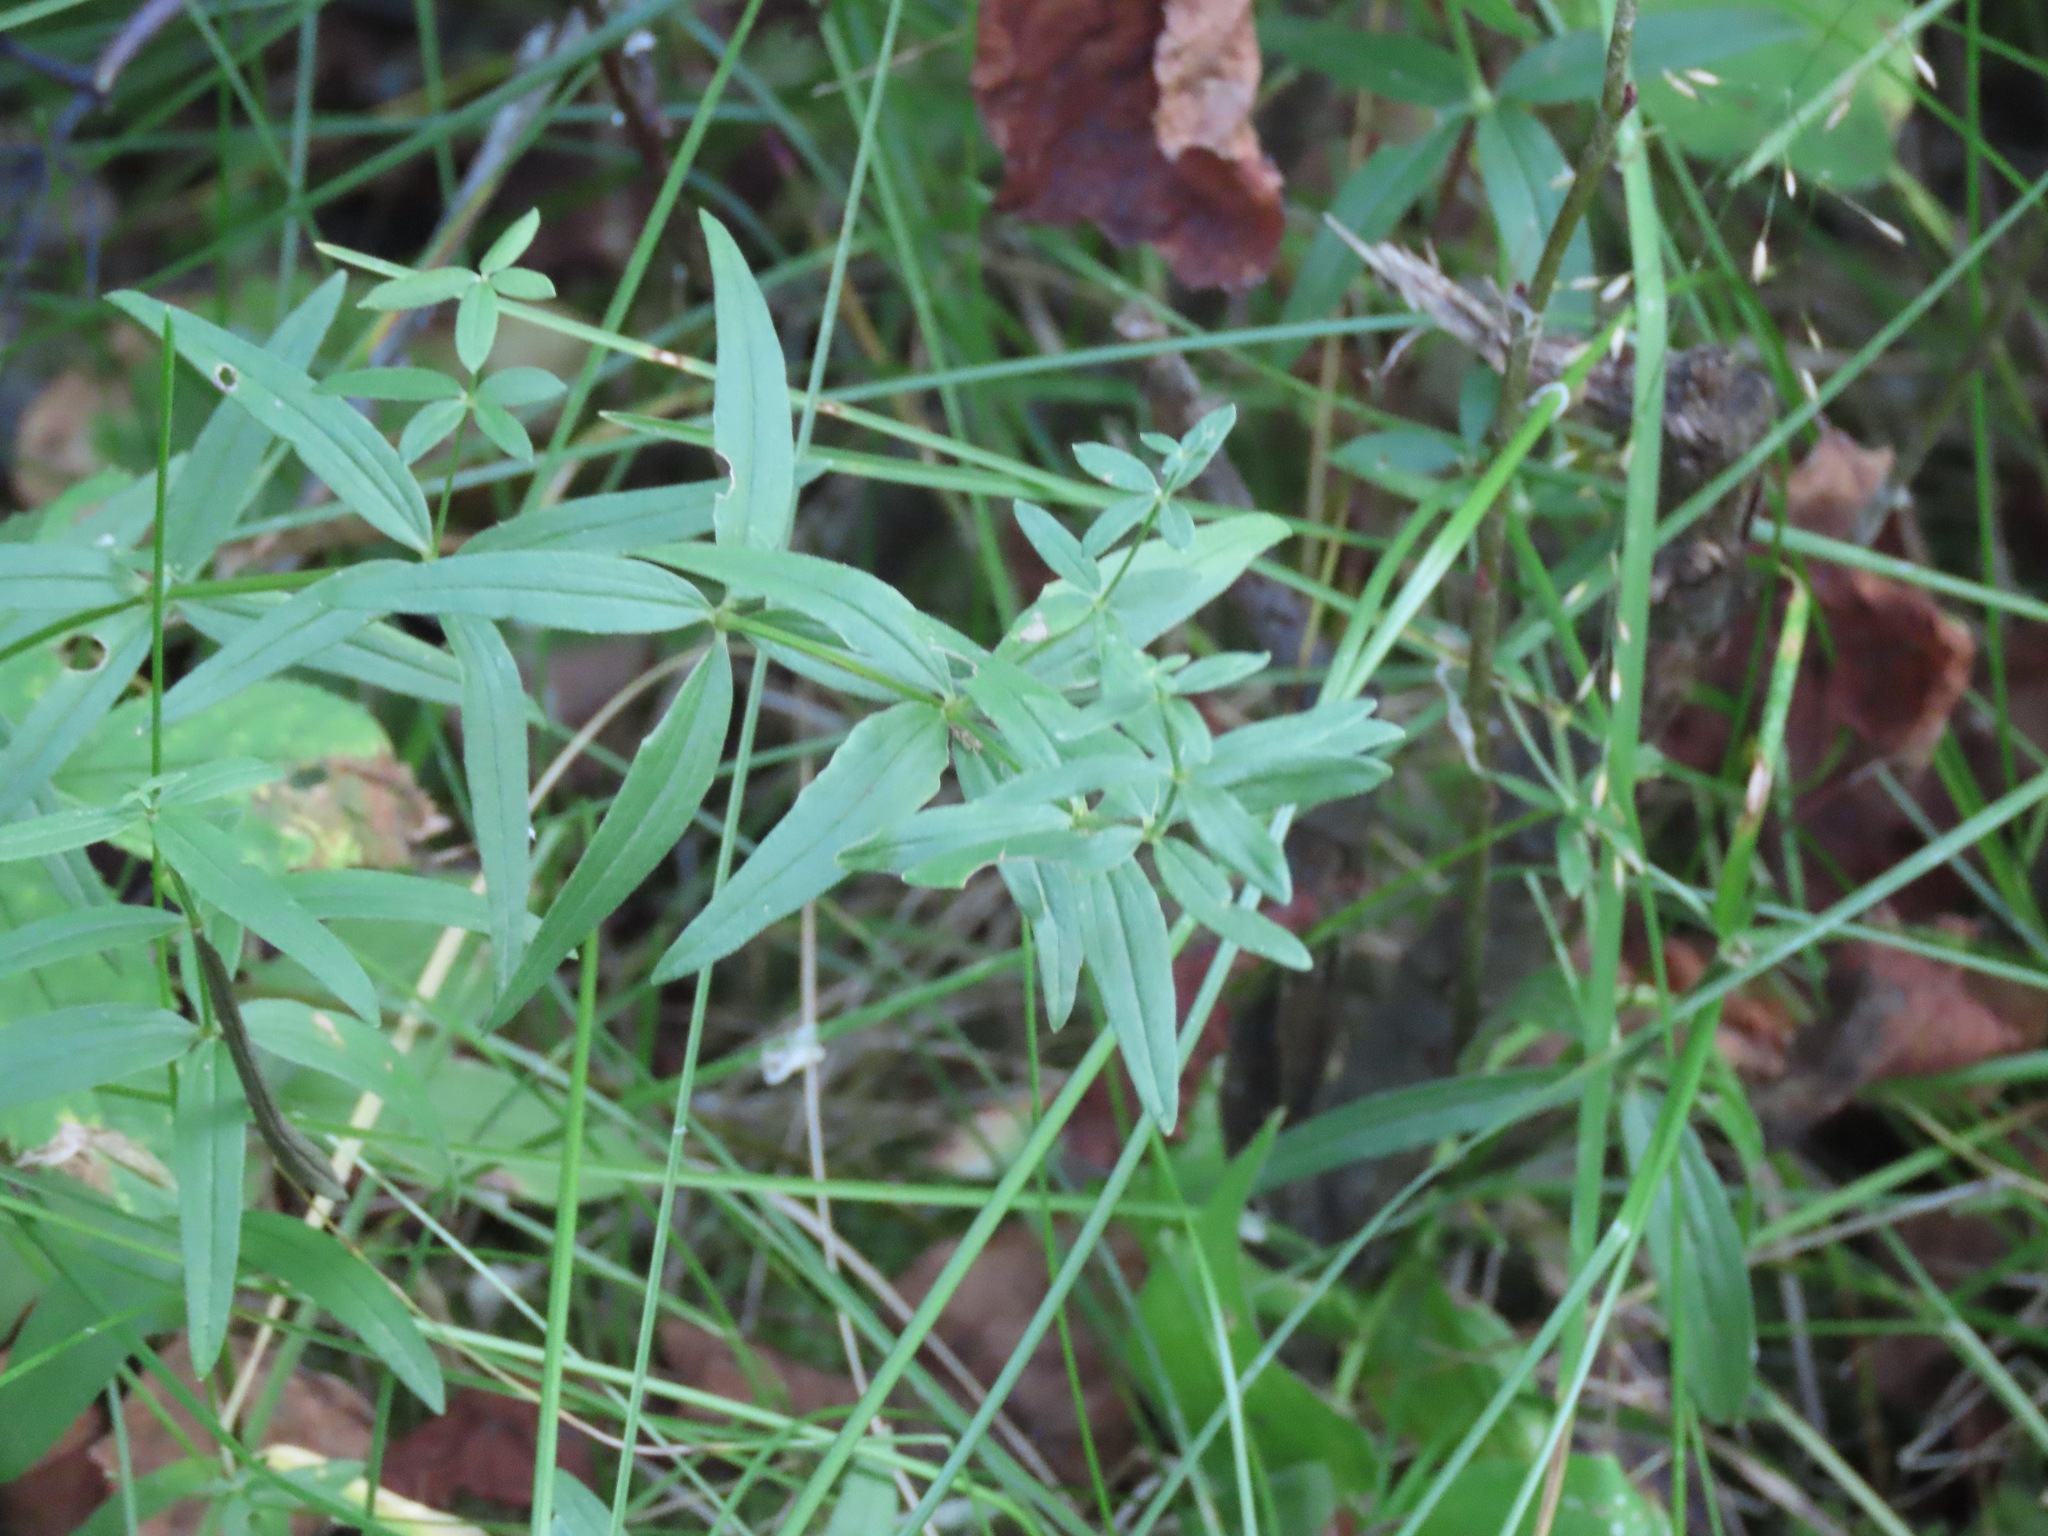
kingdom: Plantae
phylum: Tracheophyta
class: Magnoliopsida
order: Gentianales
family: Rubiaceae
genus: Galium
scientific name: Galium boreale
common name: Northern bedstraw
